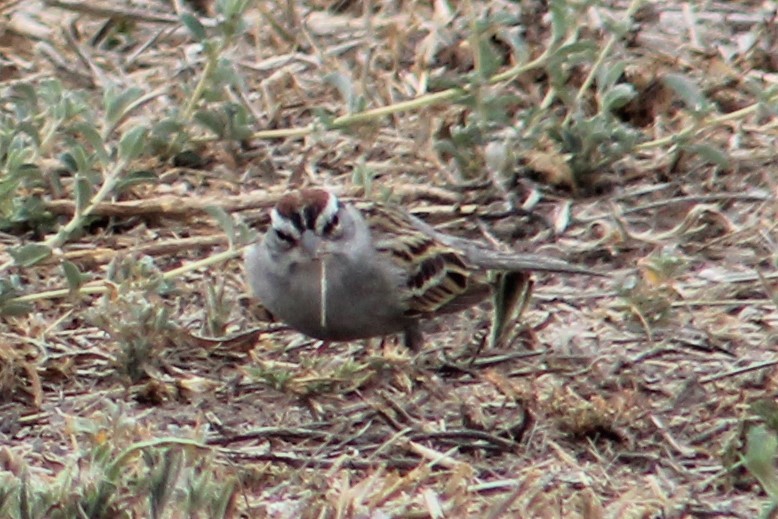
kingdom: Animalia
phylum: Chordata
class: Aves
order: Passeriformes
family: Passerellidae
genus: Spizella
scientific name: Spizella passerina
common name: Chipping sparrow
